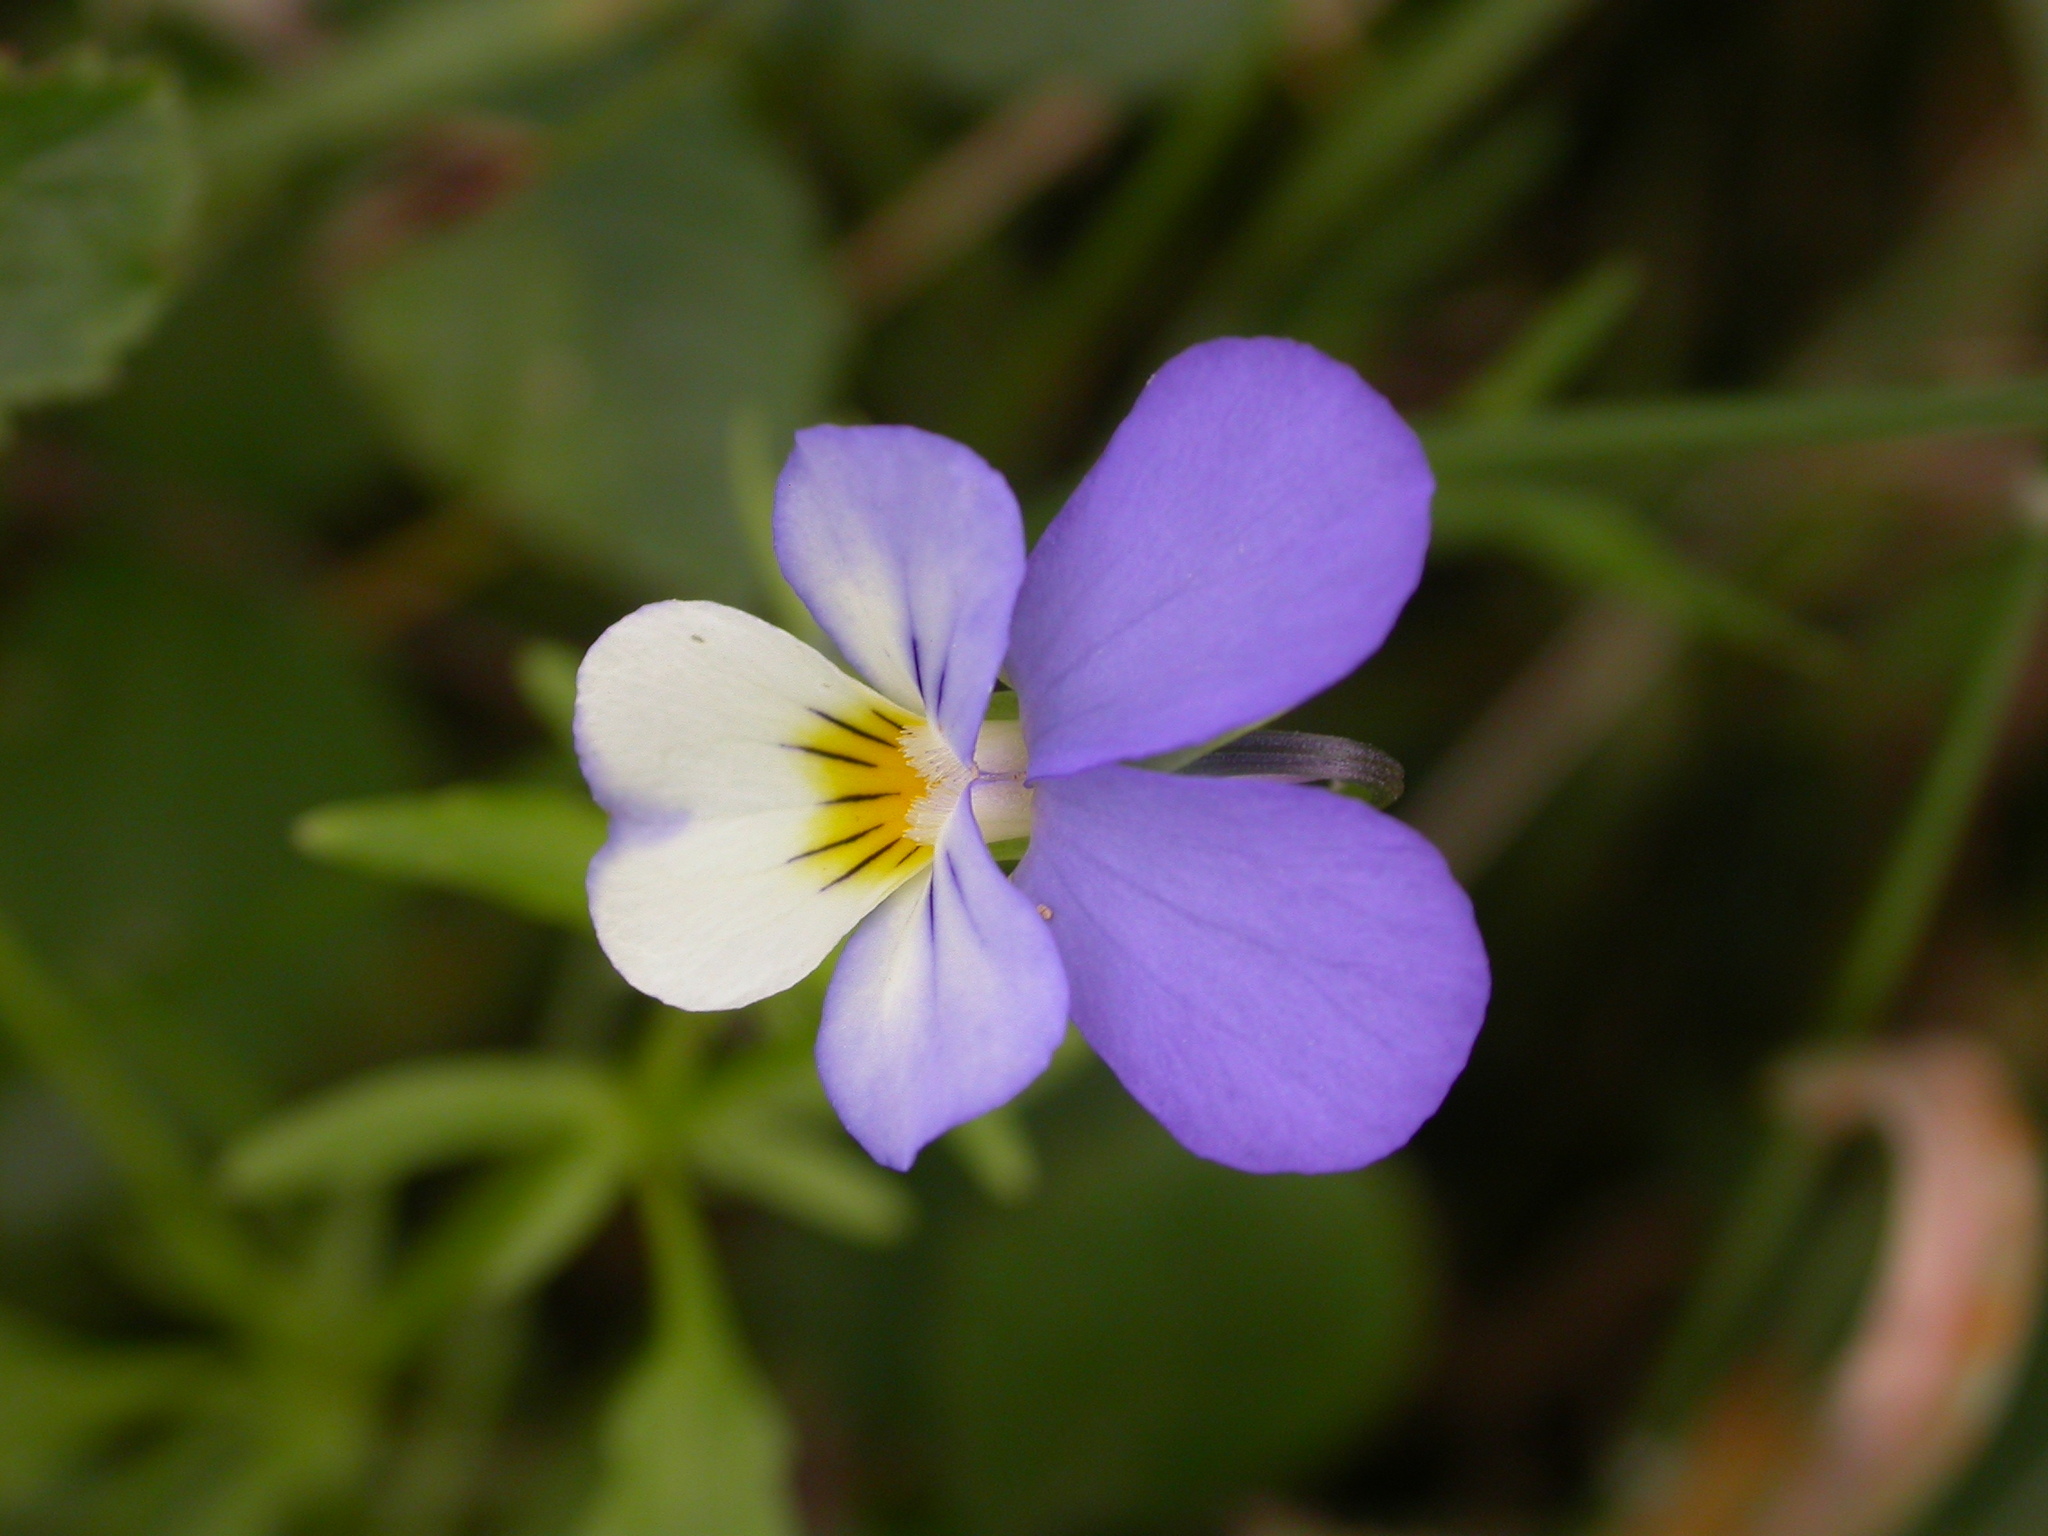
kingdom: Plantae
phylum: Tracheophyta
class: Magnoliopsida
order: Malpighiales
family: Violaceae
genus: Viola
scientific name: Viola tricolor
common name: Pansy
